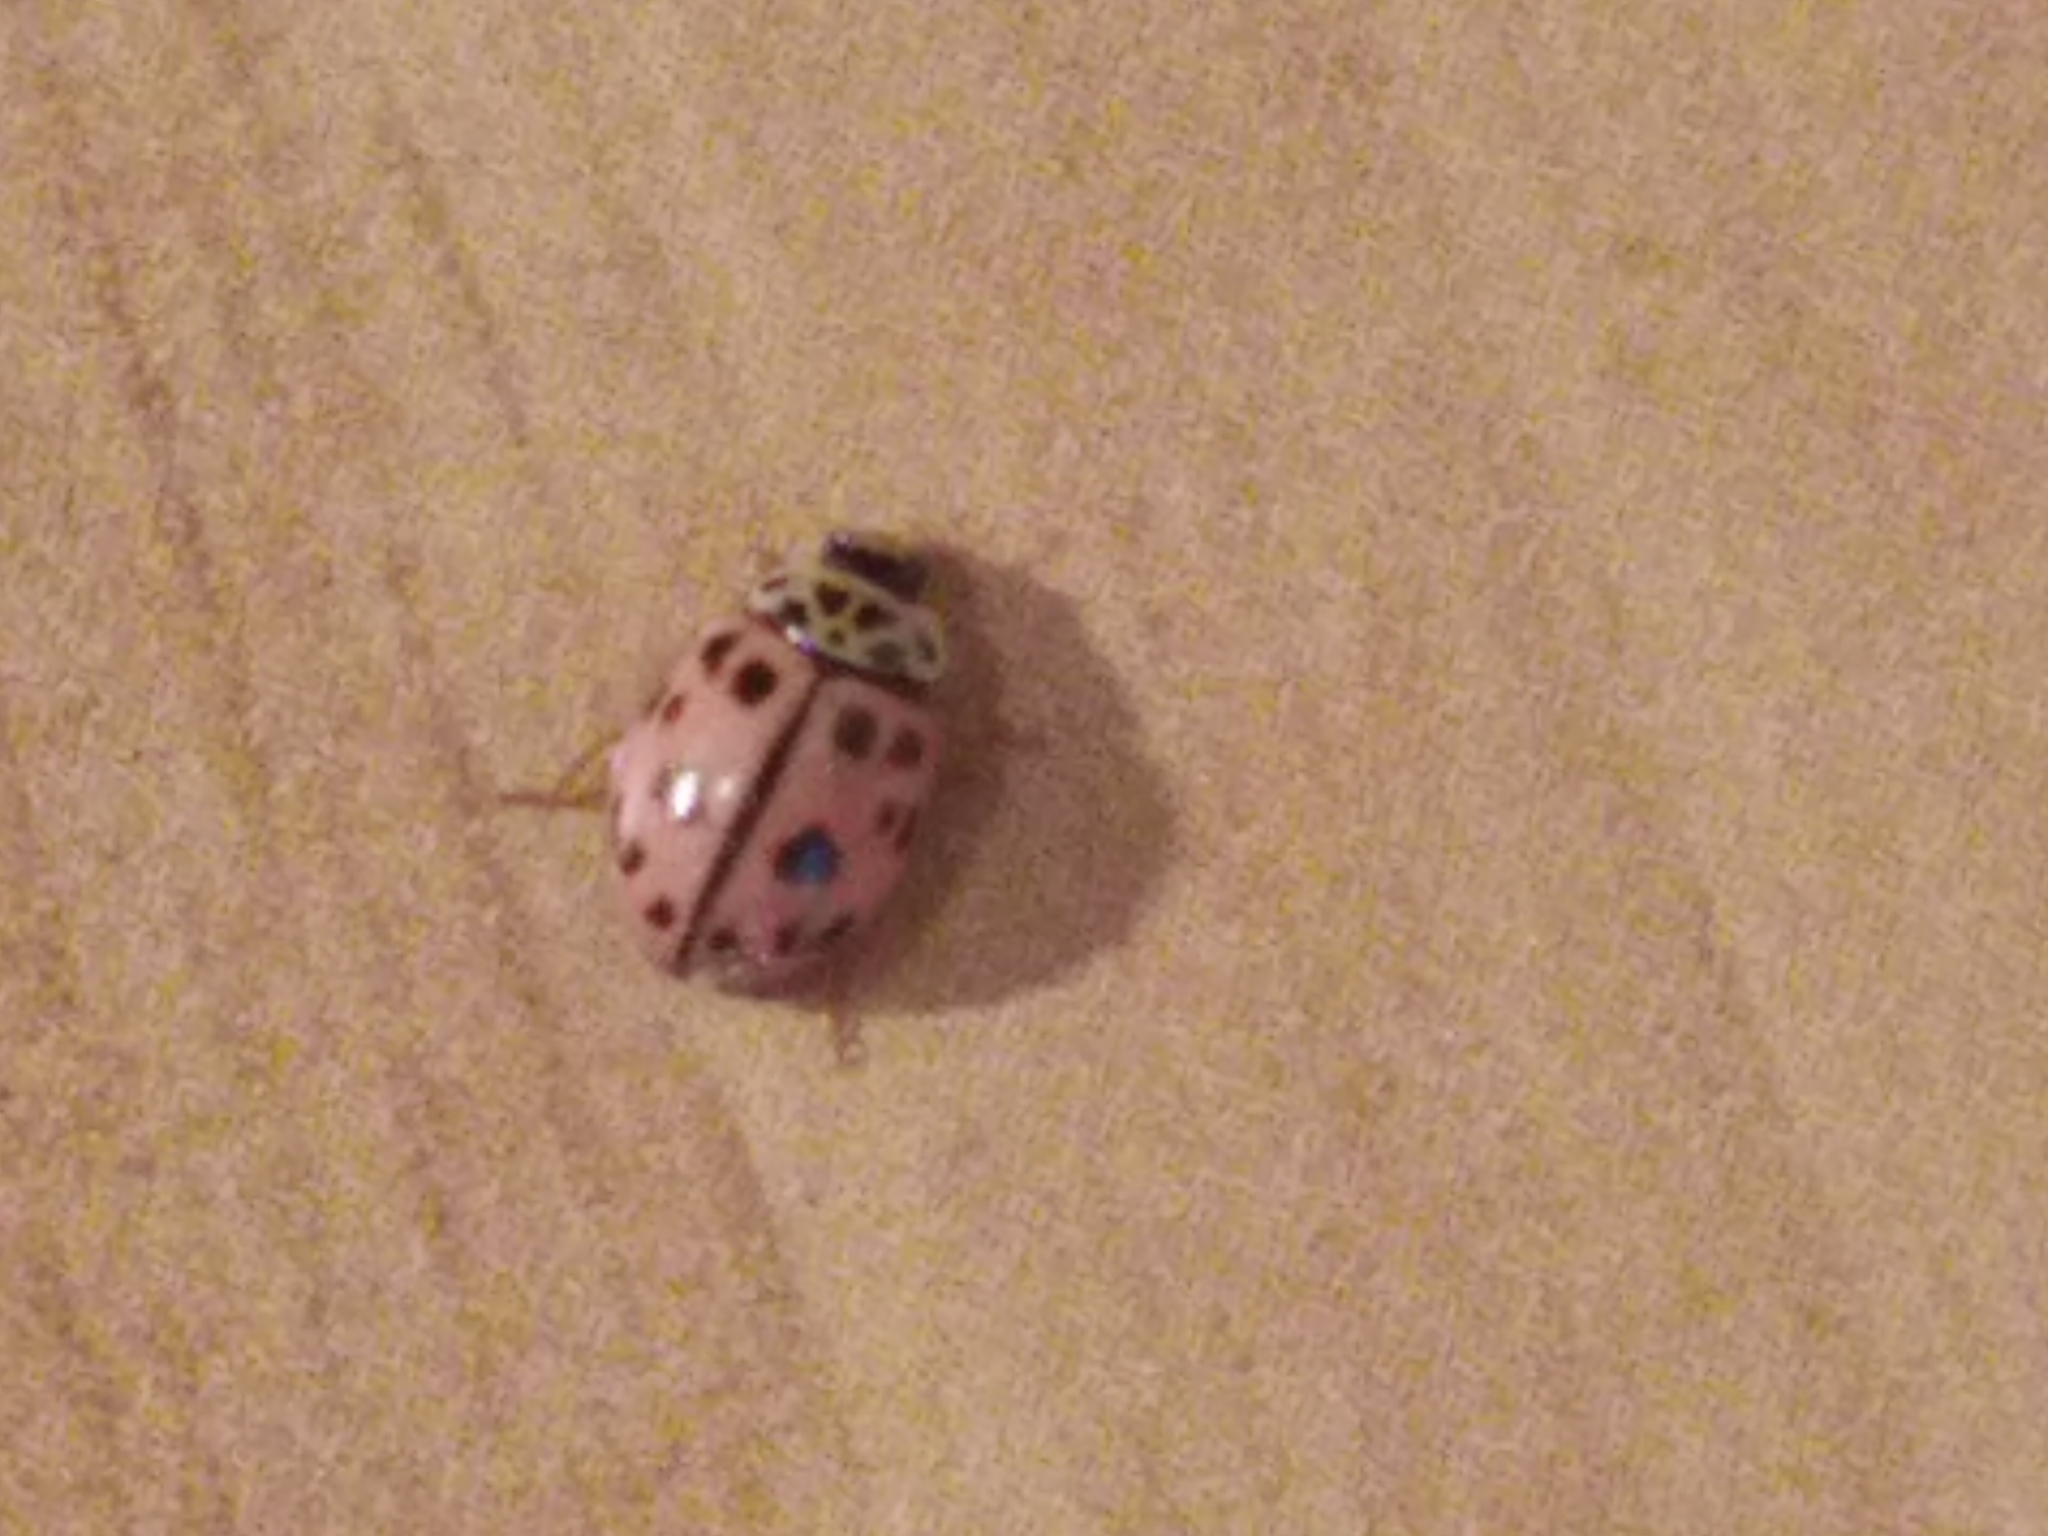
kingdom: Animalia
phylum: Arthropoda
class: Insecta
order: Coleoptera
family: Coccinellidae
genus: Oenopia
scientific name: Oenopia conglobata
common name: Ladybird beetle
